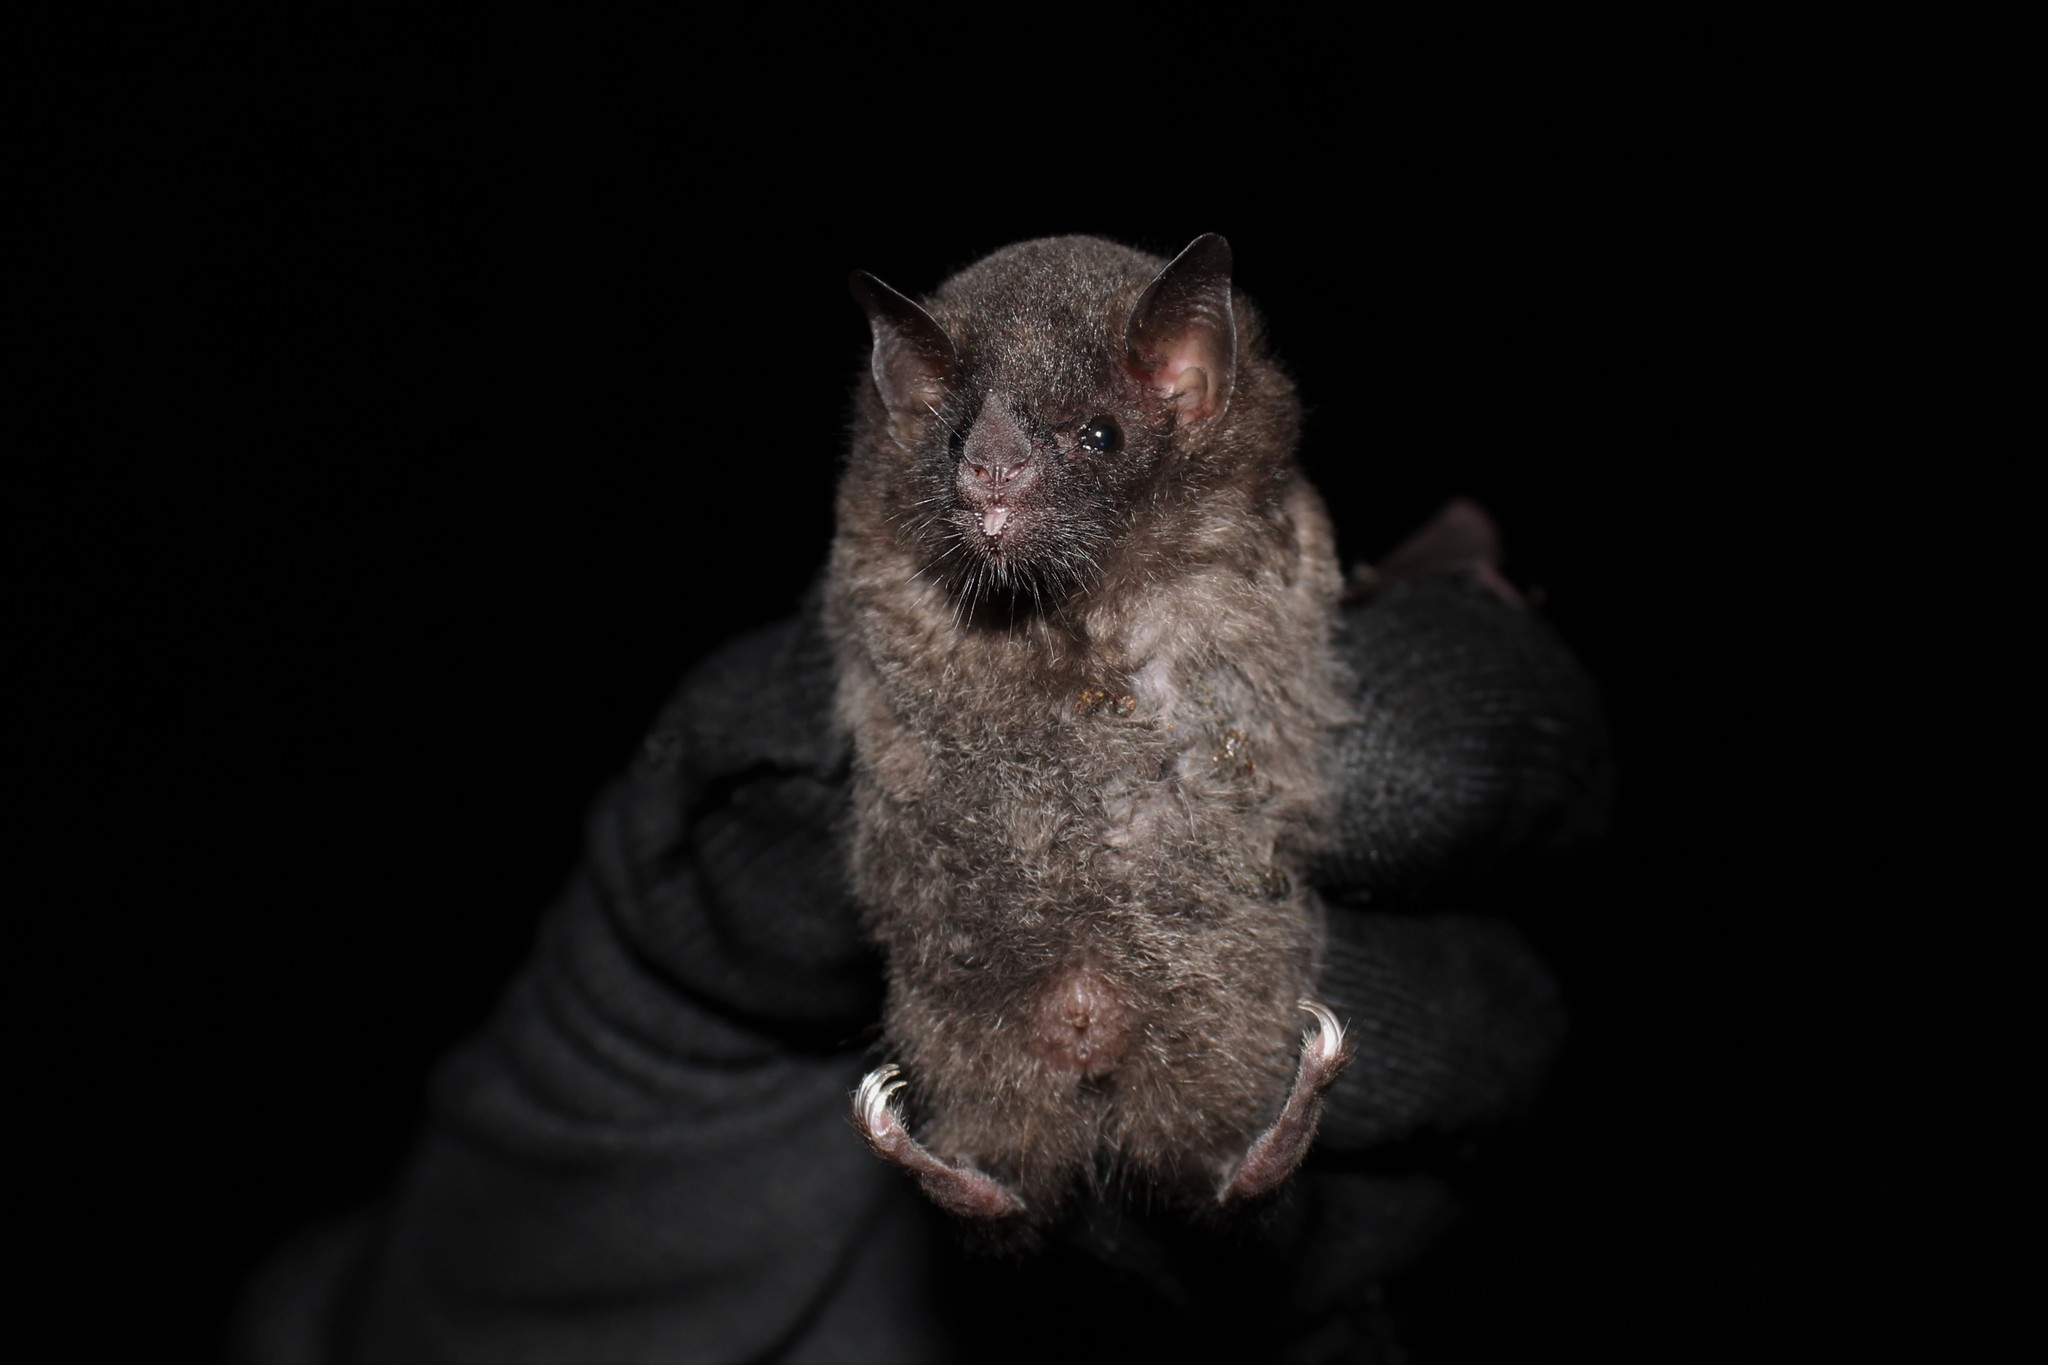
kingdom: Animalia
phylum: Chordata
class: Mammalia
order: Chiroptera
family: Phyllostomidae
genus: Anoura
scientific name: Anoura geoffroyi
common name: Geoffroy's tailless bat
